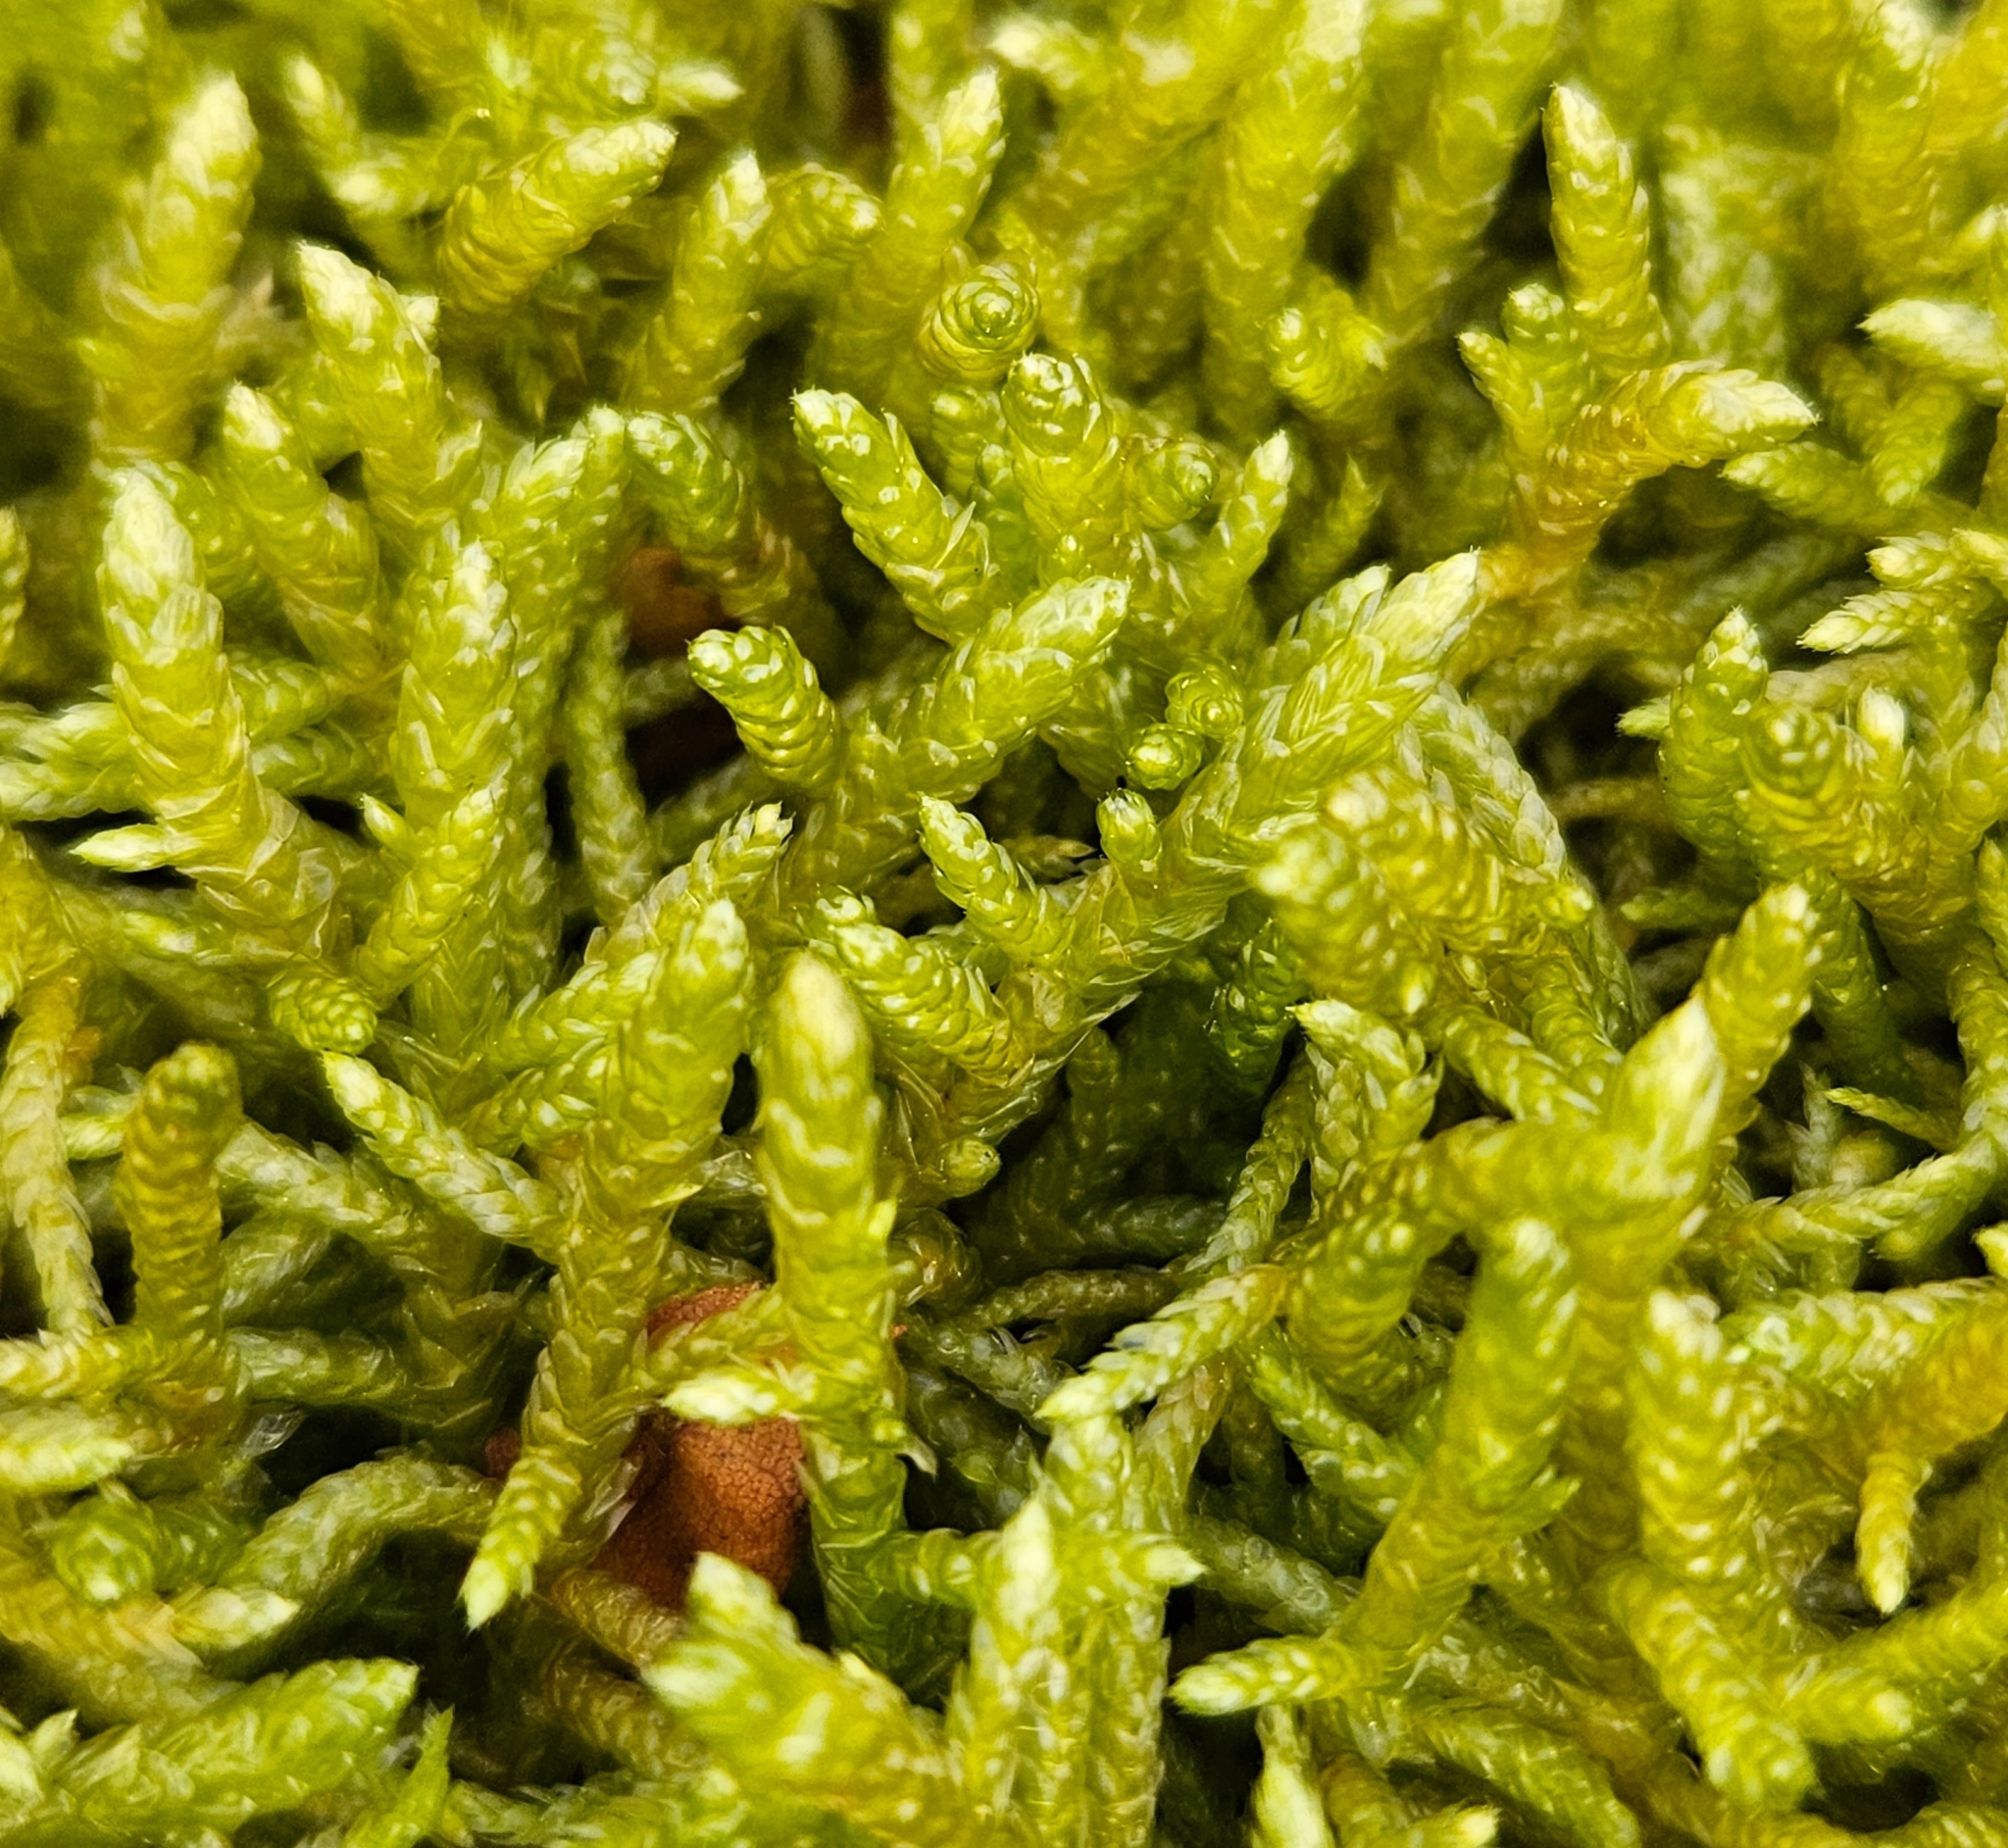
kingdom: Plantae
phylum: Bryophyta
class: Bryopsida
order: Hypnales
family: Brachytheciaceae
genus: Pseudoscleropodium
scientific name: Pseudoscleropodium purum
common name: Neat feather-moss
